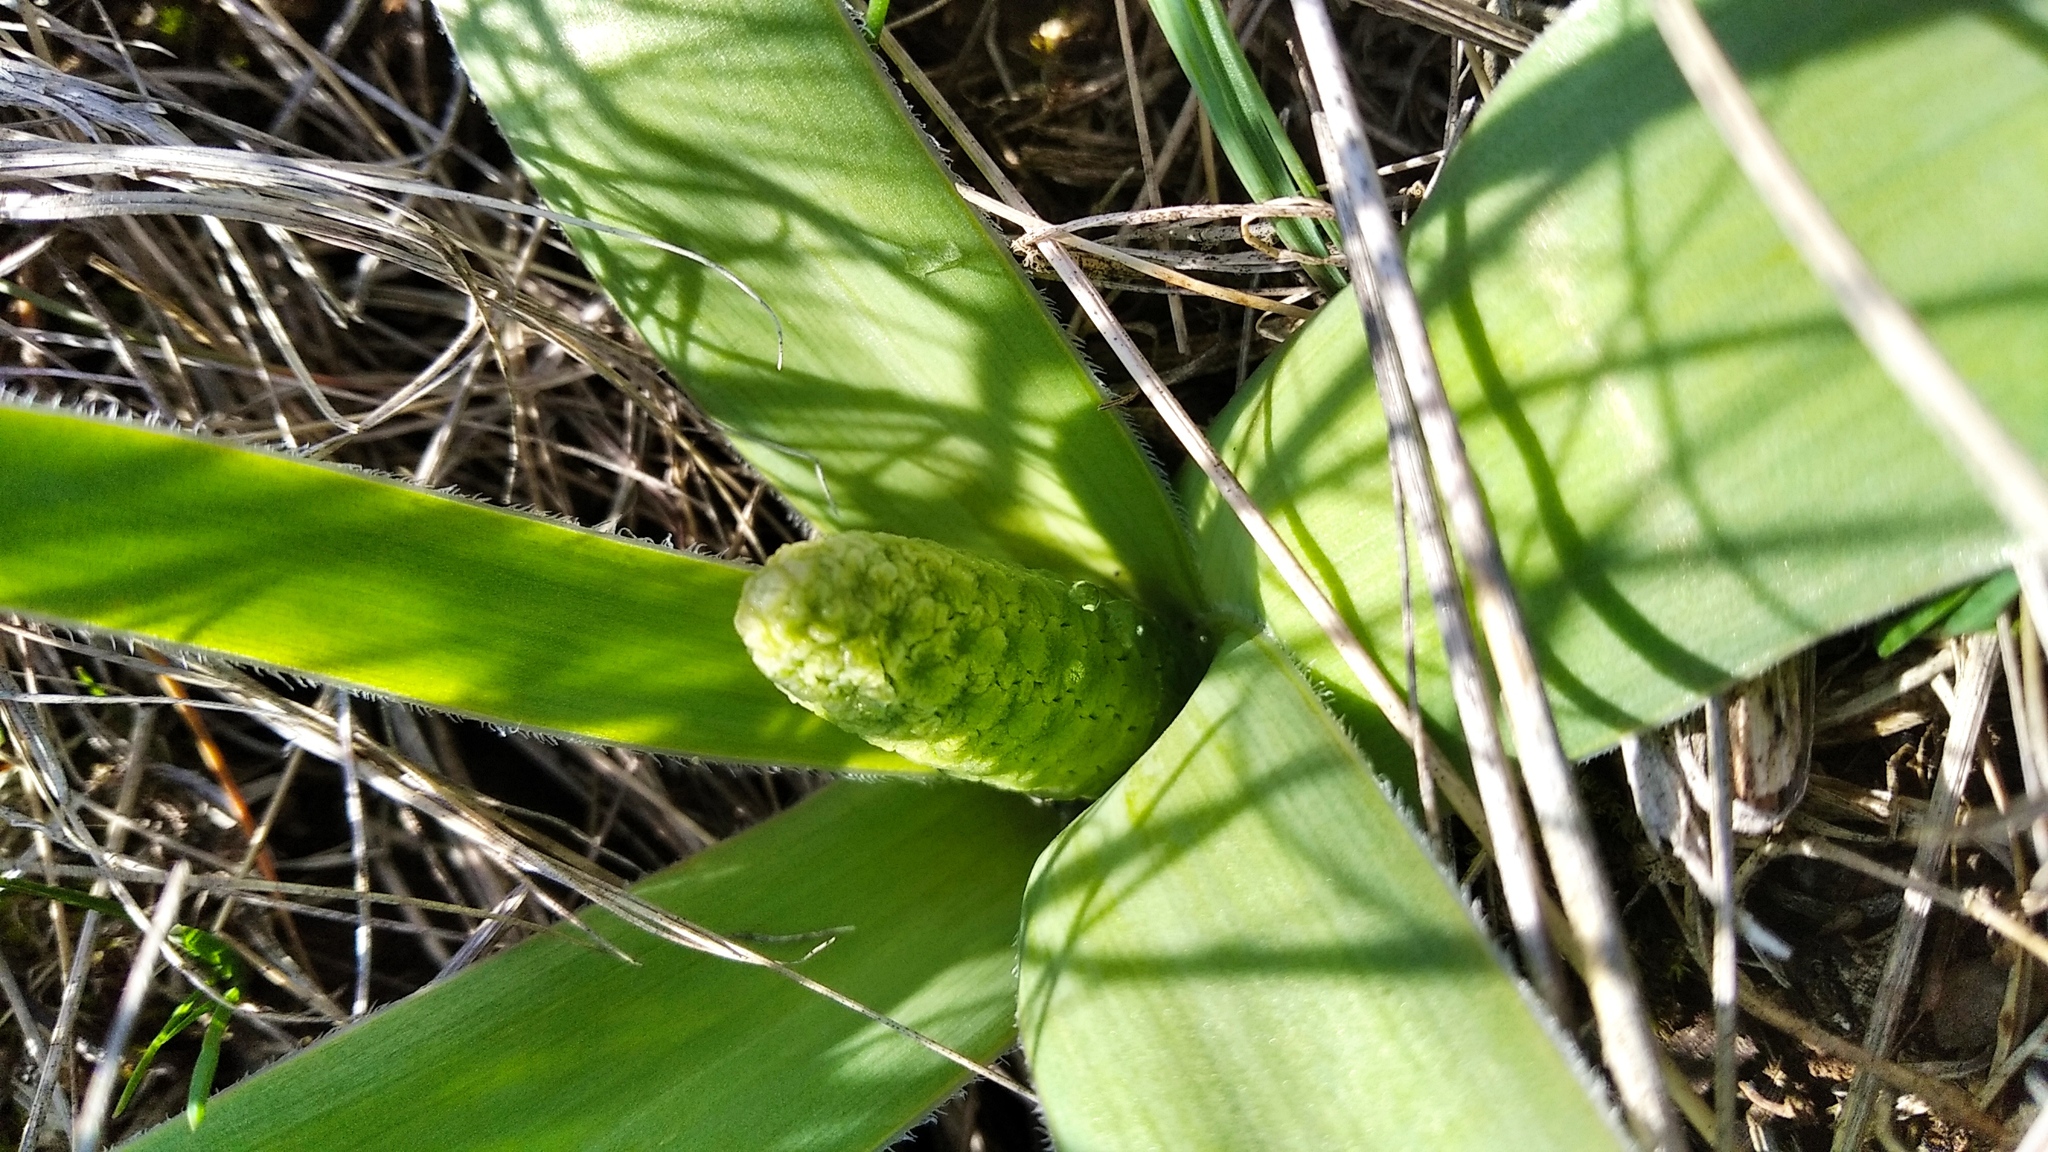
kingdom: Plantae
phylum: Tracheophyta
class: Liliopsida
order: Asparagales
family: Asparagaceae
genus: Bellevalia
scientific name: Bellevalia speciosa
